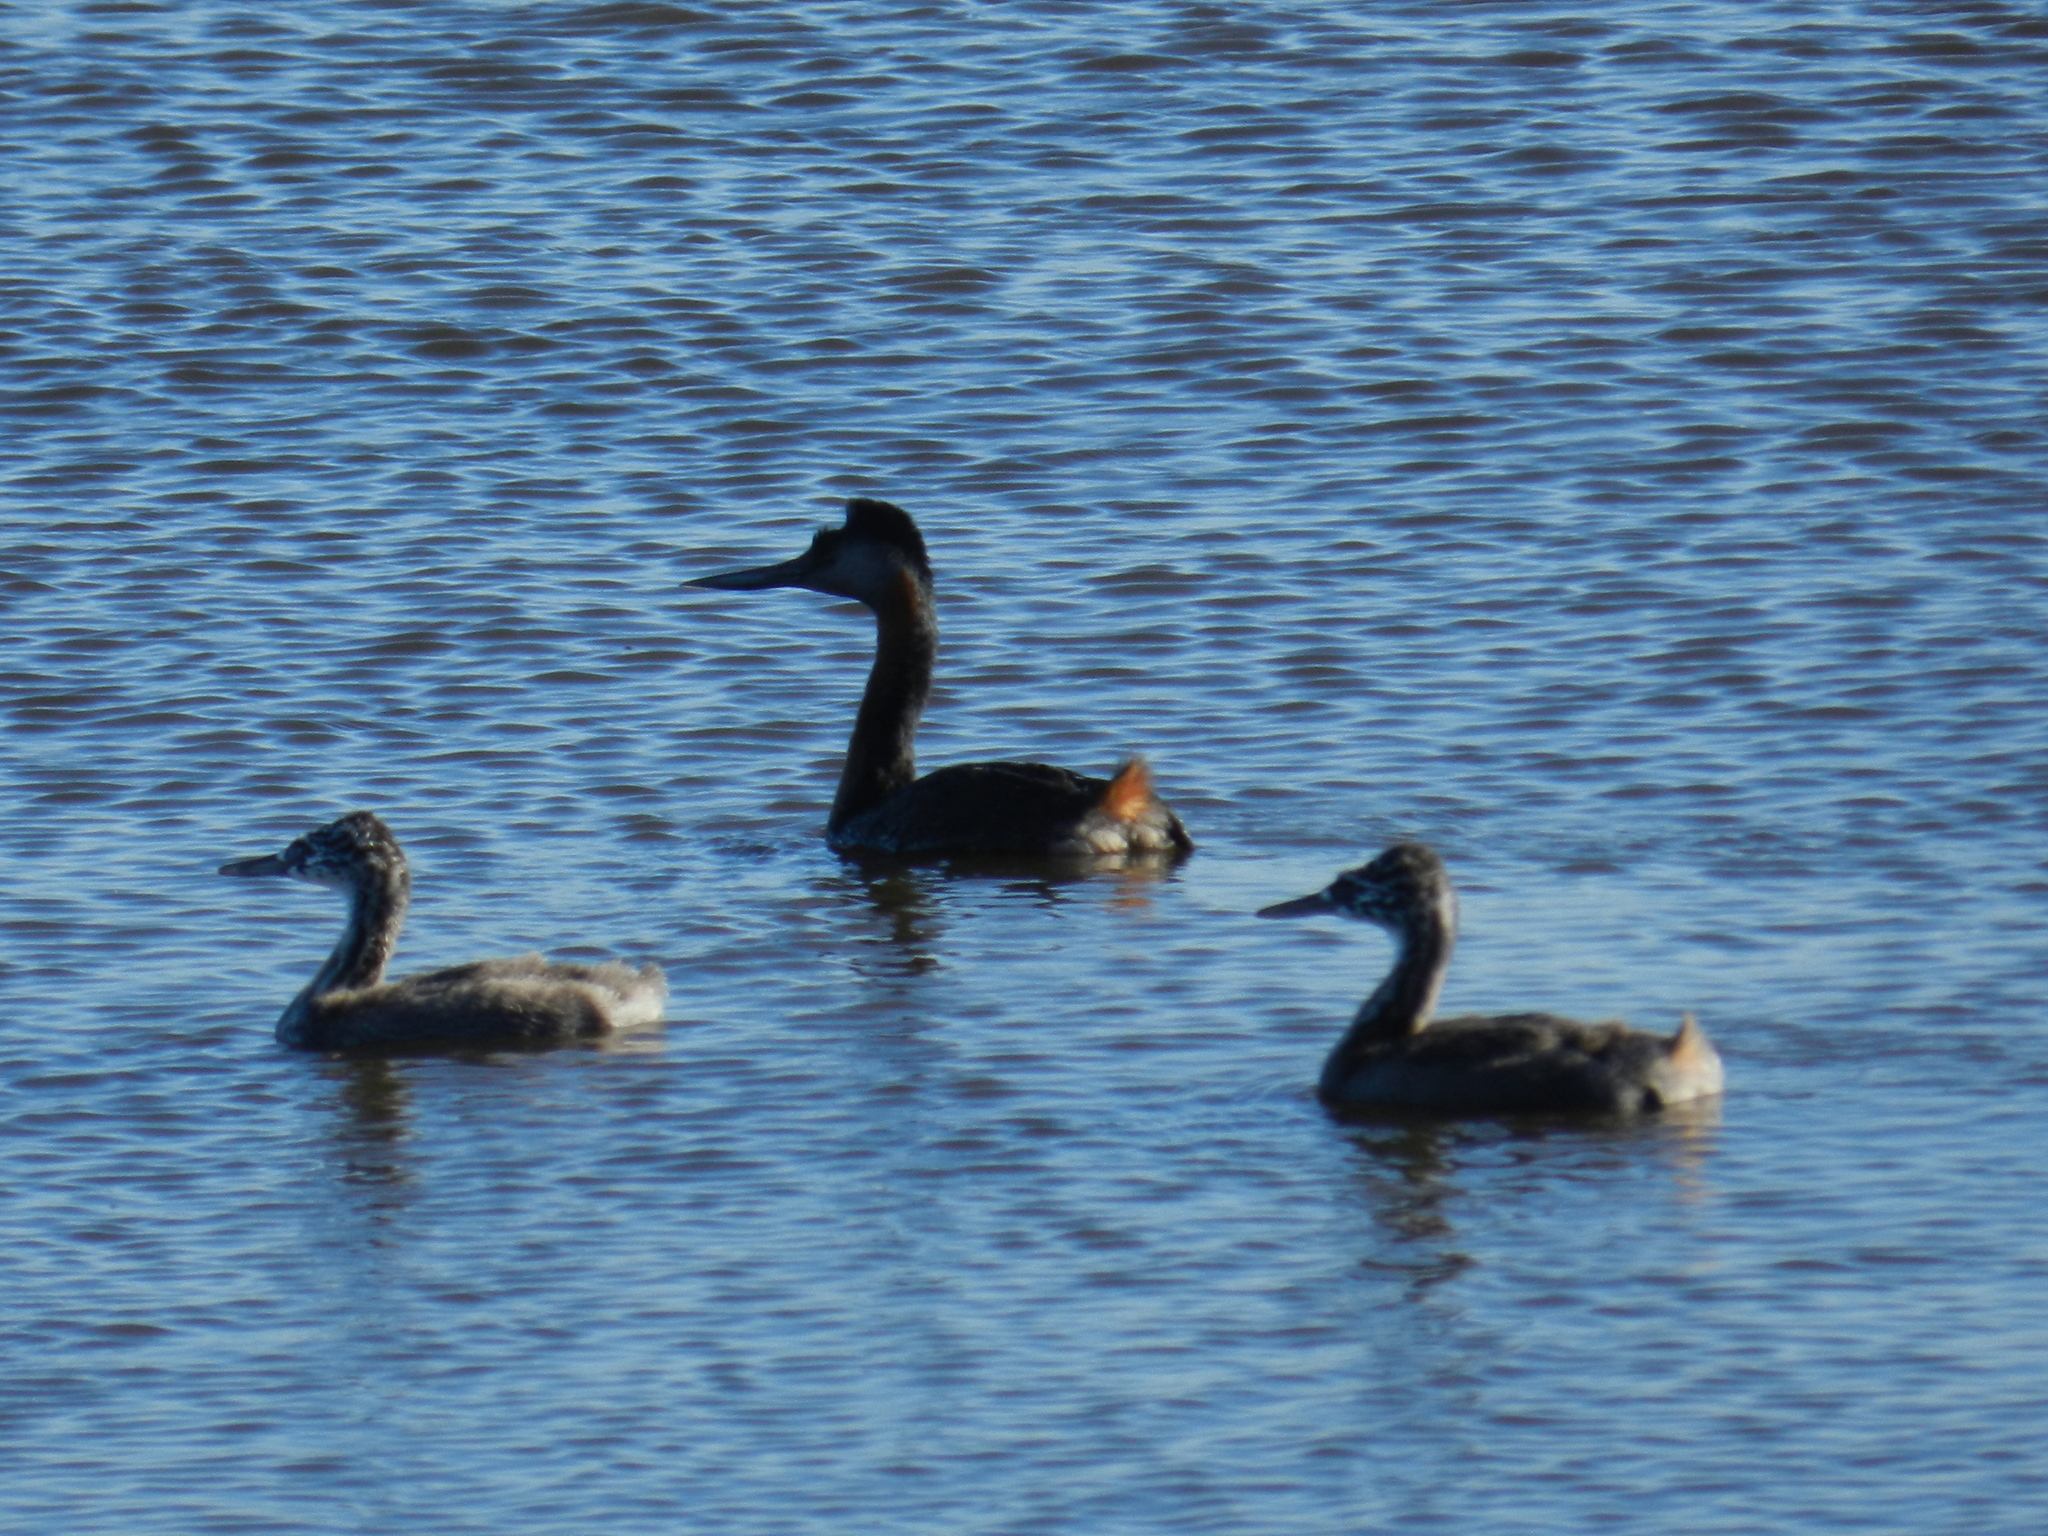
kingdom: Animalia
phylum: Chordata
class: Aves
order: Podicipediformes
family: Podicipedidae
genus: Podiceps
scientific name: Podiceps major
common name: Great grebe
